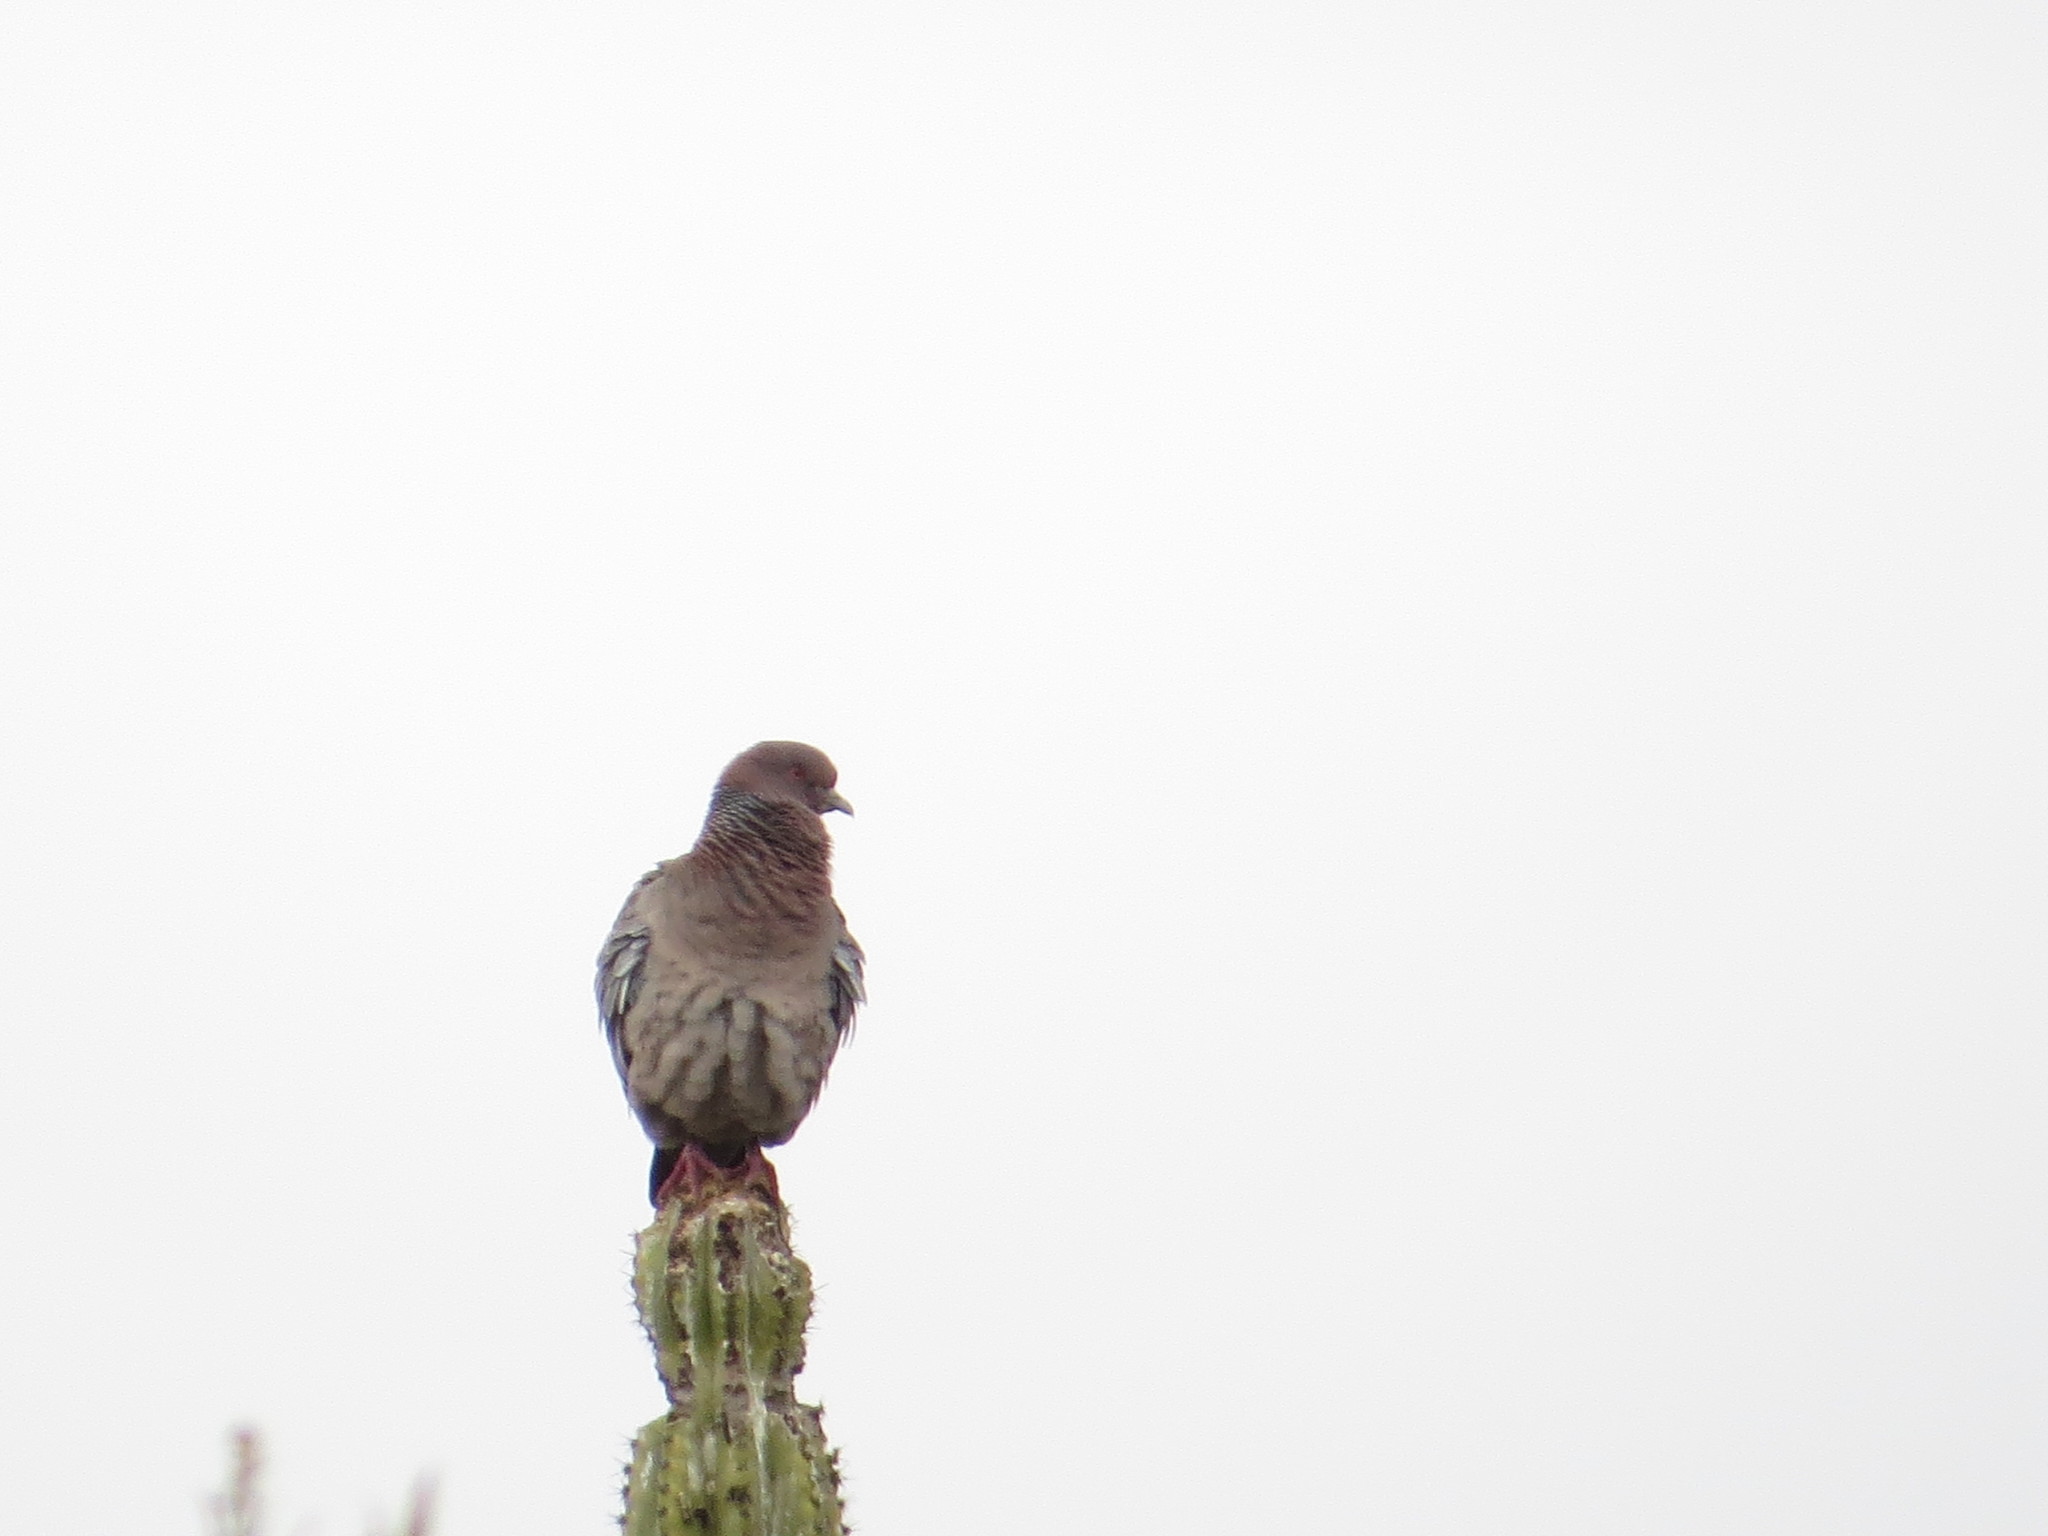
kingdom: Animalia
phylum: Chordata
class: Aves
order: Columbiformes
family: Columbidae
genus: Patagioenas
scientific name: Patagioenas picazuro
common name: Picazuro pigeon
